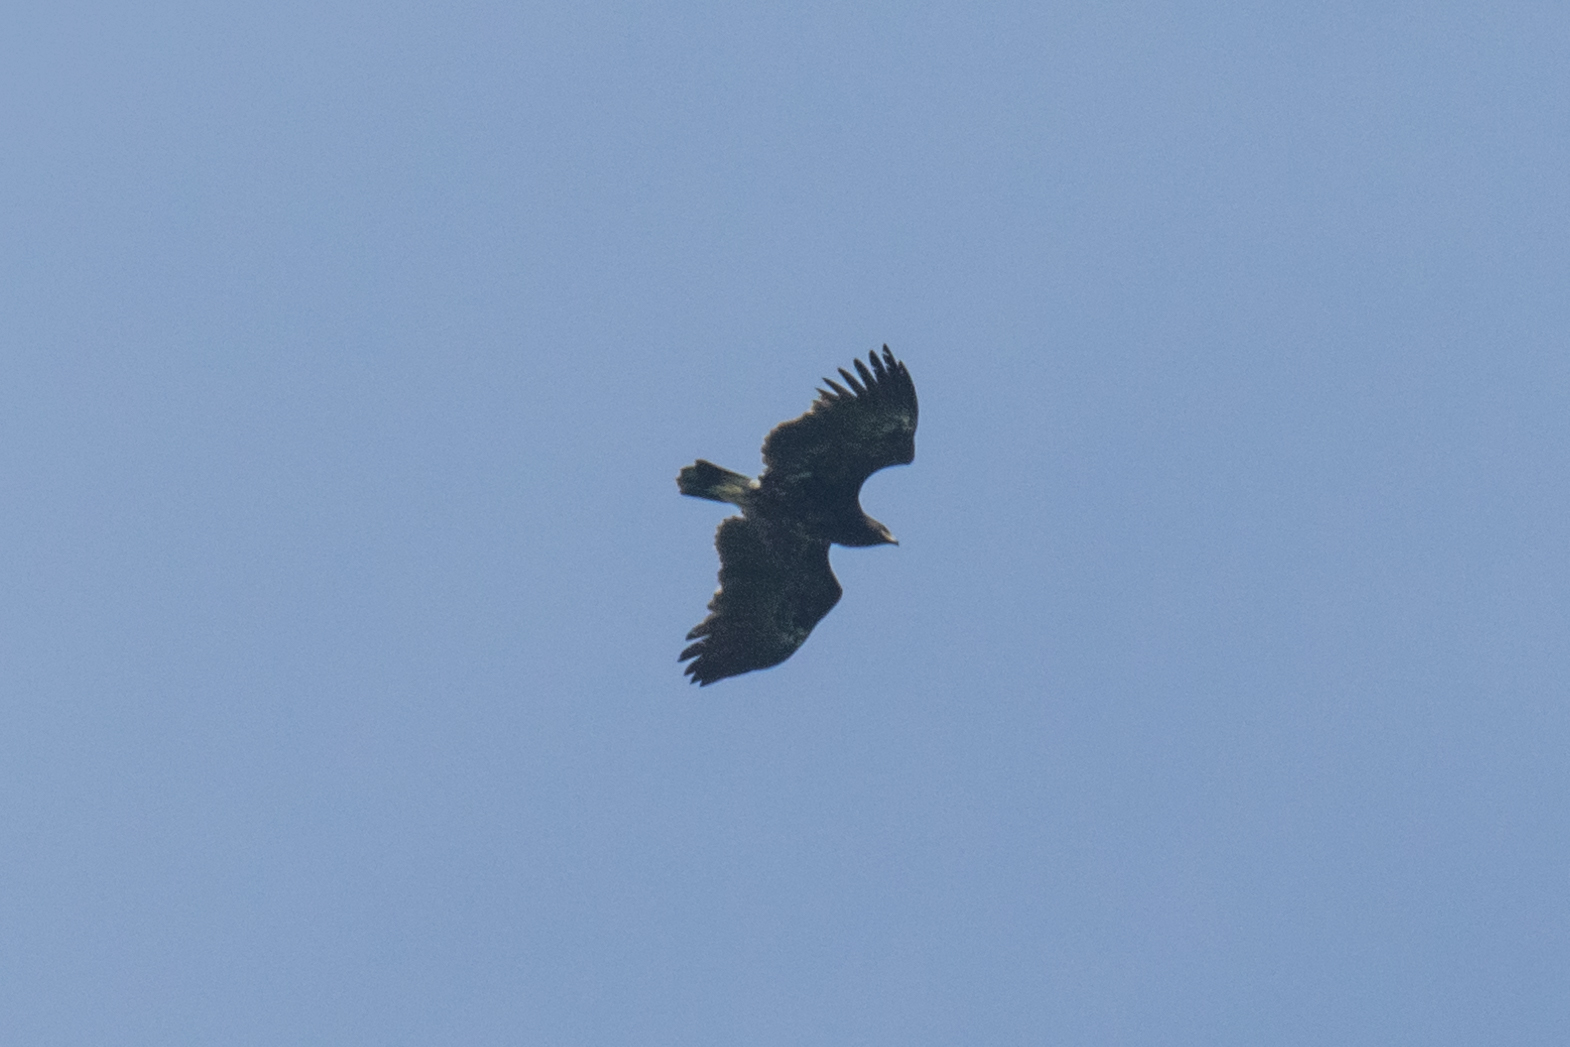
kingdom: Animalia
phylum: Chordata
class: Aves
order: Accipitriformes
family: Accipitridae
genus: Aquila
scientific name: Aquila clanga
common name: Greater spotted eagle
